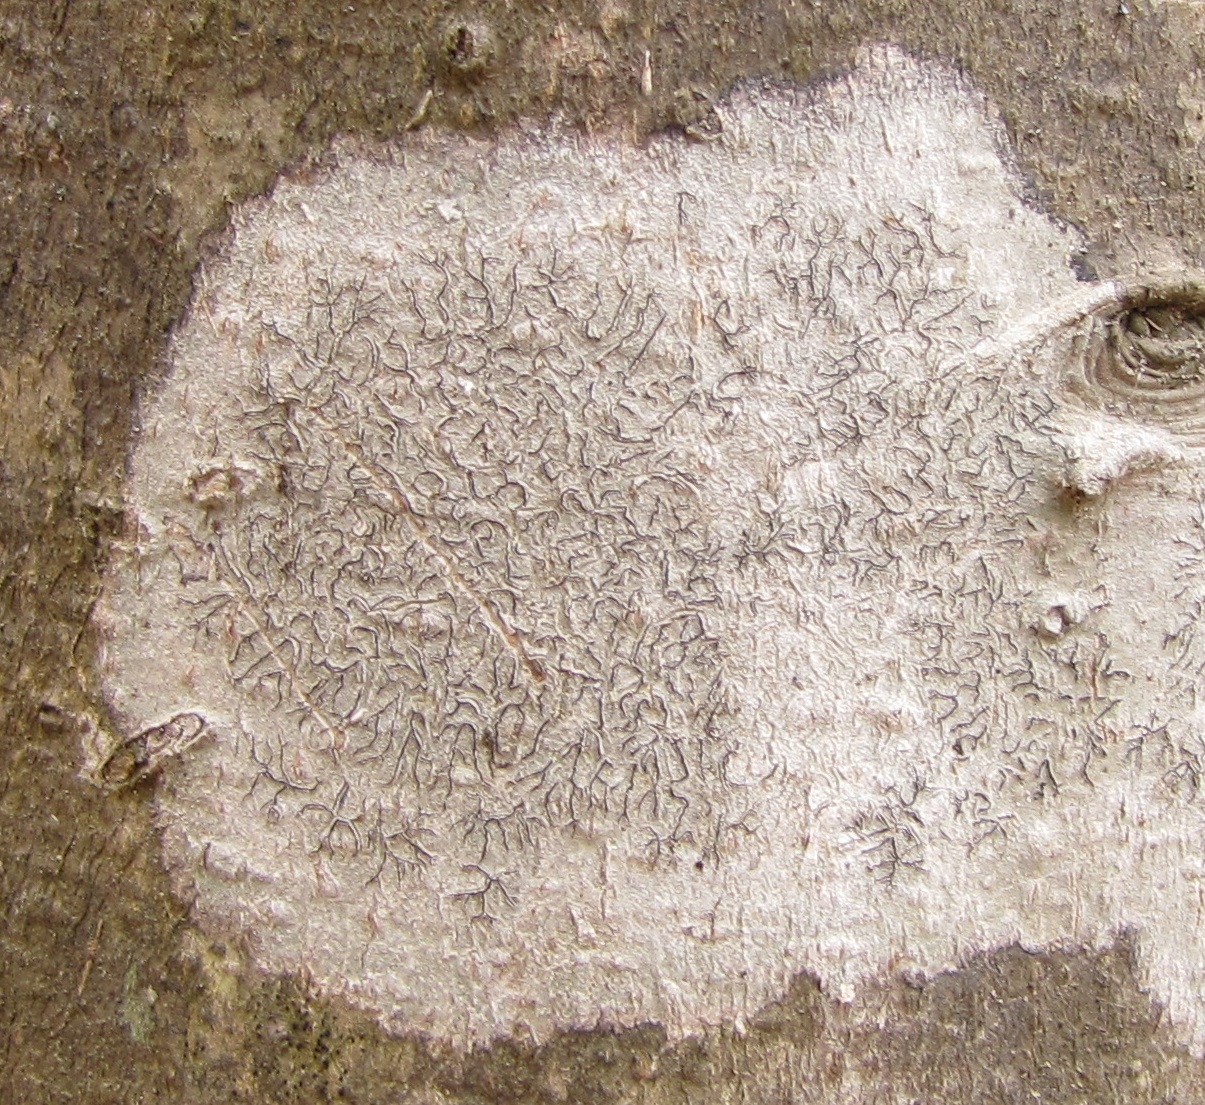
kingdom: Fungi
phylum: Ascomycota
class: Lecanoromycetes
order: Ostropales
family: Graphidaceae
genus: Graphis
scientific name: Graphis scripta
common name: Script lichen
